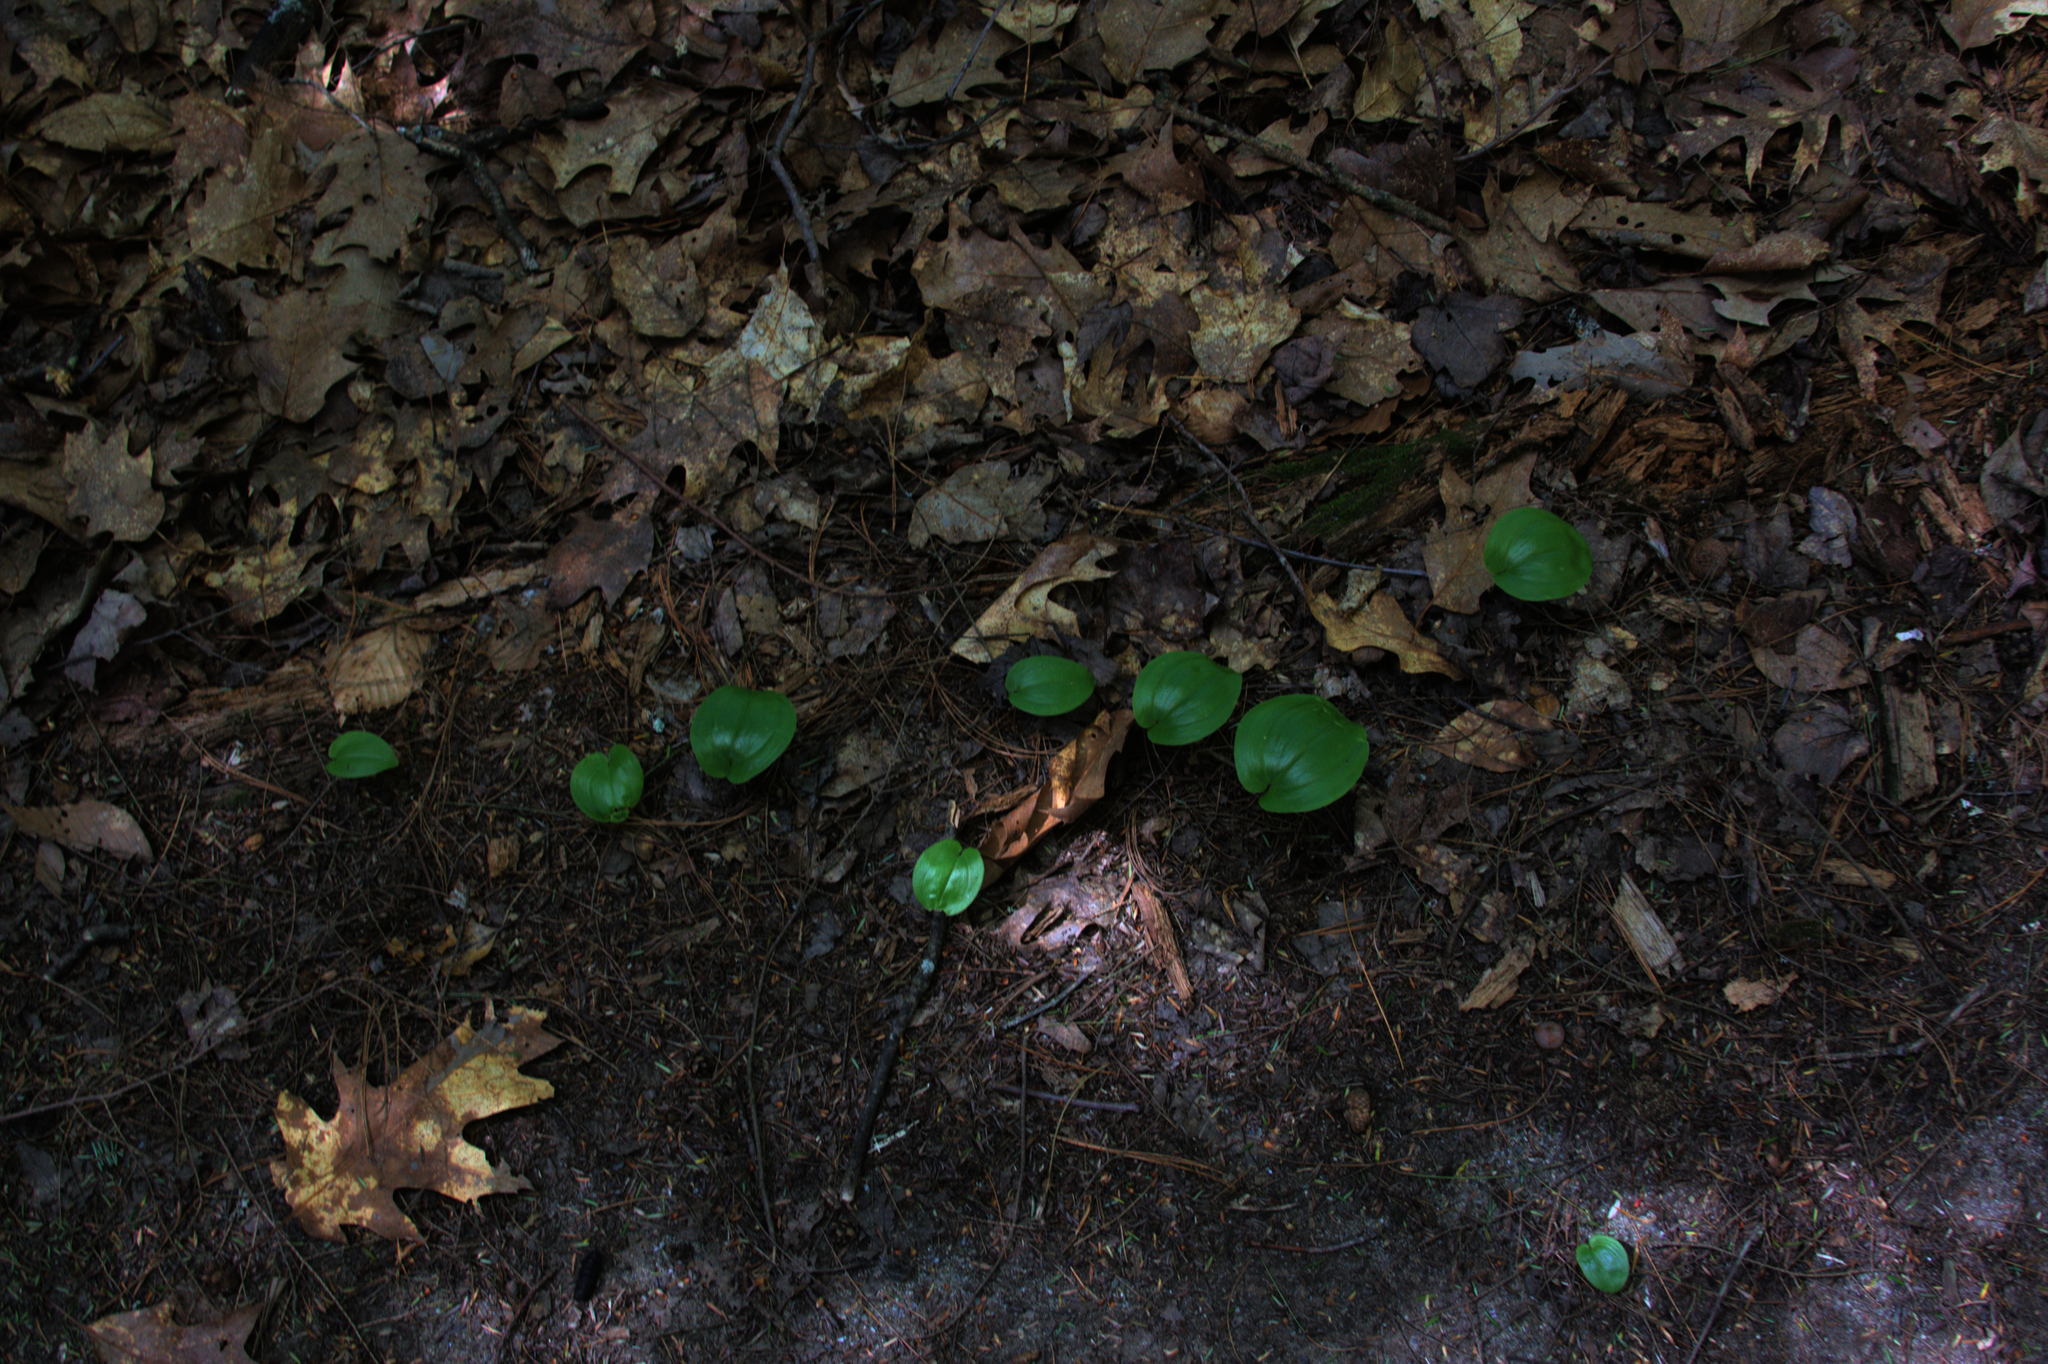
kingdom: Plantae
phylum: Tracheophyta
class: Liliopsida
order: Asparagales
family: Asparagaceae
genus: Maianthemum
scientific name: Maianthemum canadense
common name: False lily-of-the-valley
